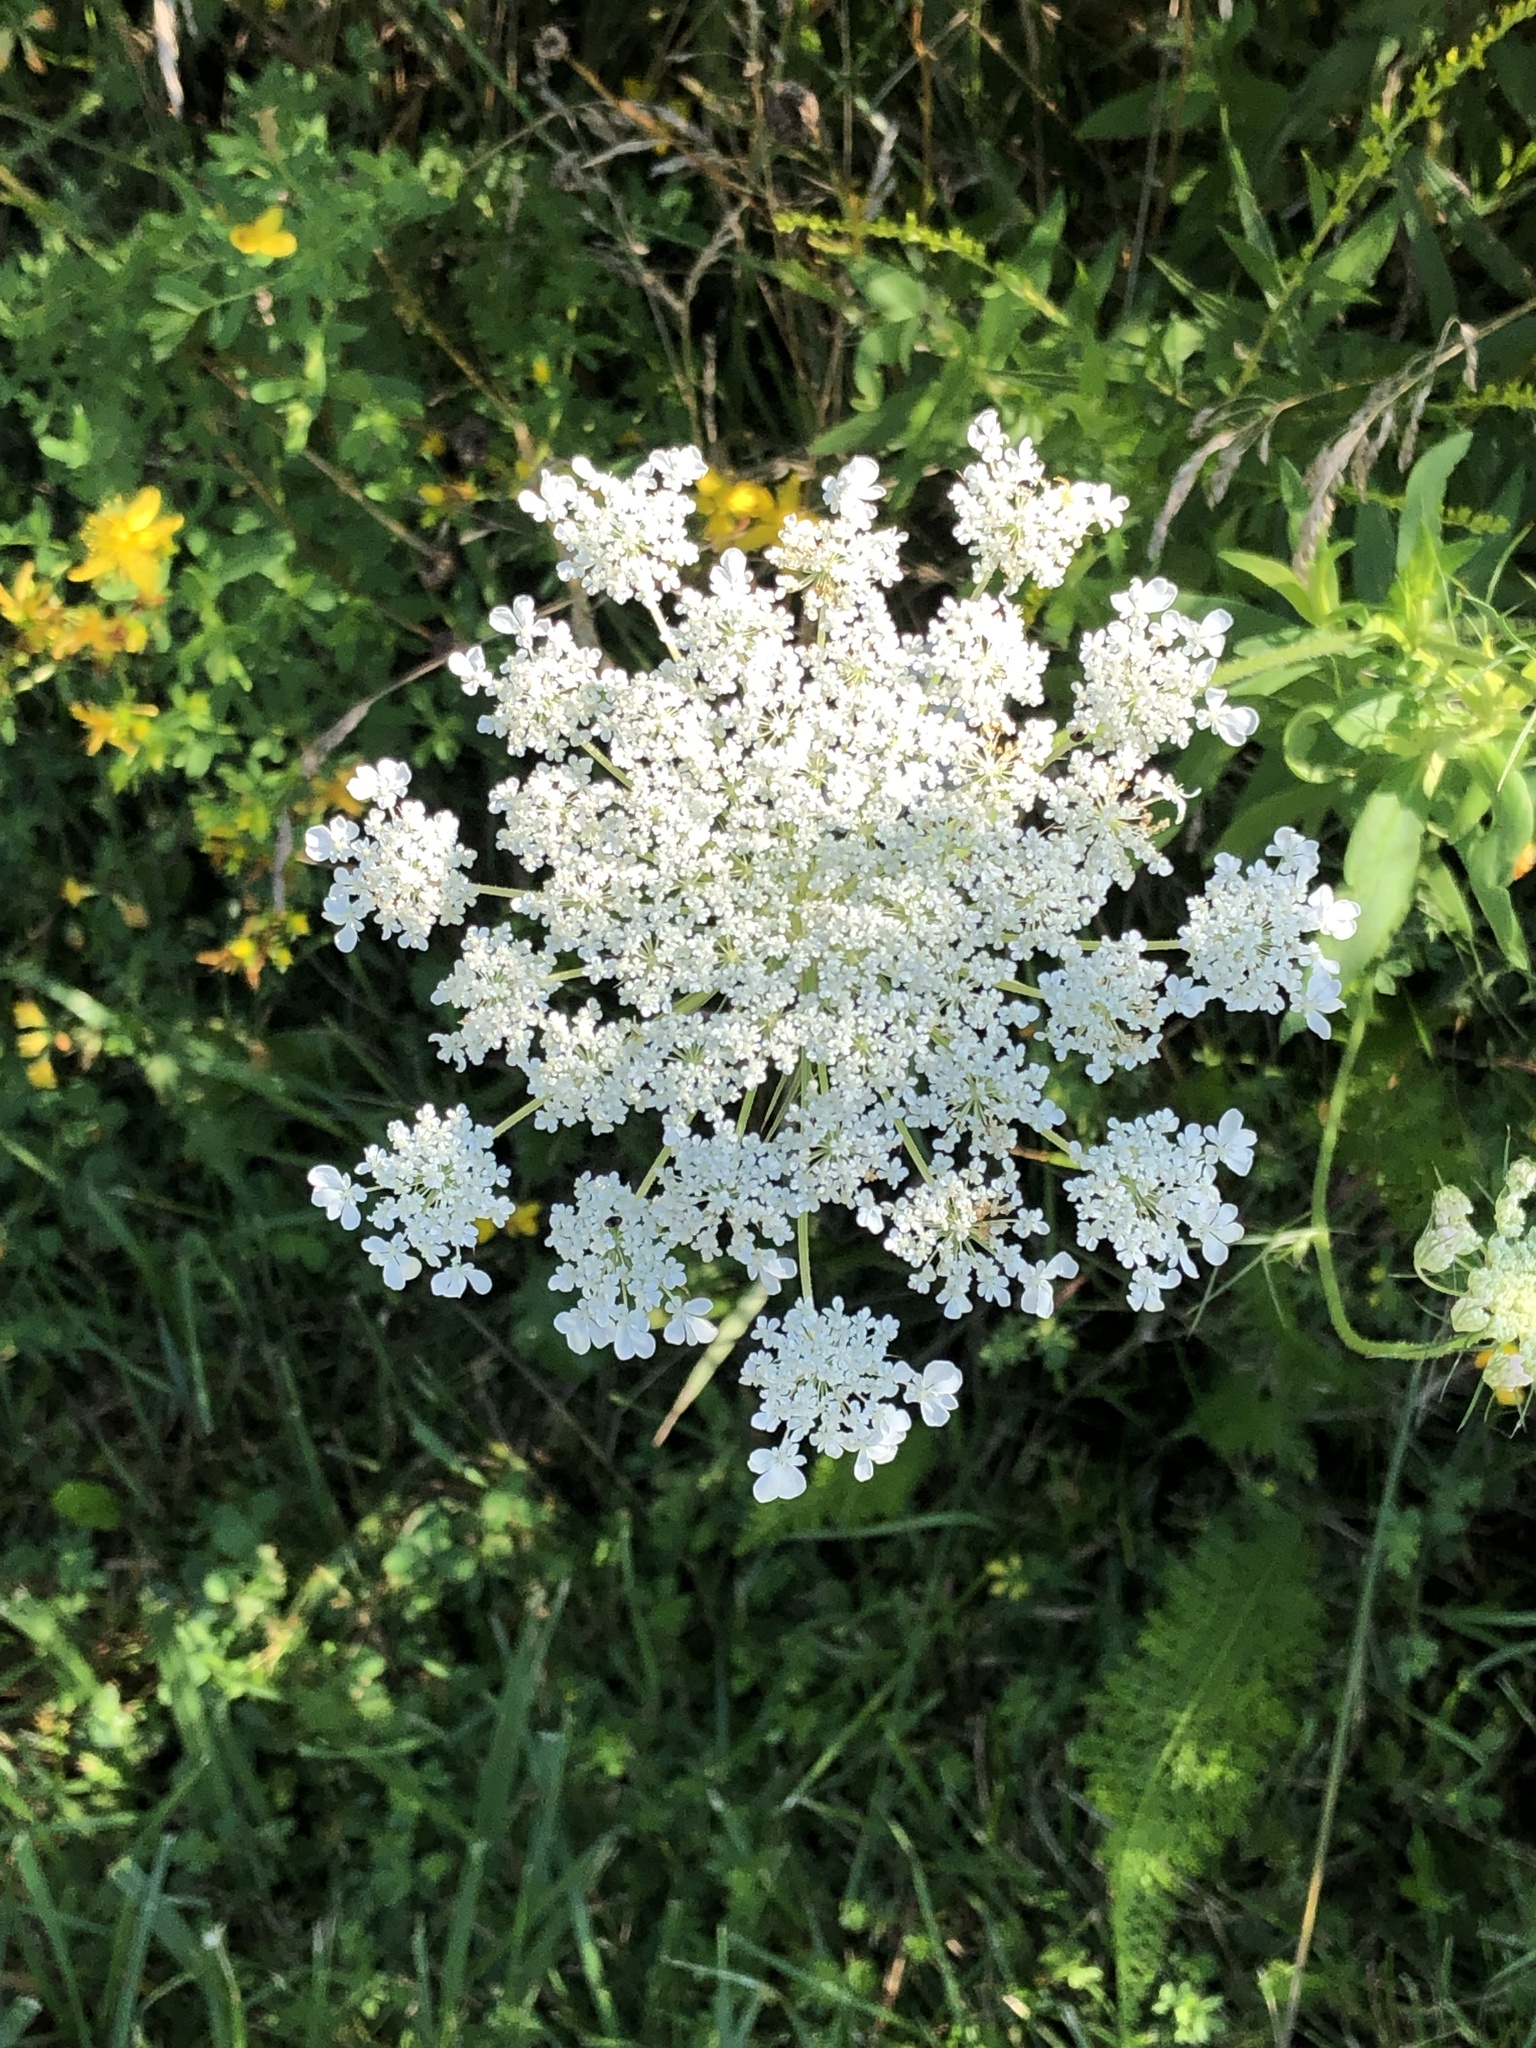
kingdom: Plantae
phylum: Tracheophyta
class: Magnoliopsida
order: Apiales
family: Apiaceae
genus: Daucus
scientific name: Daucus carota
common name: Wild carrot
